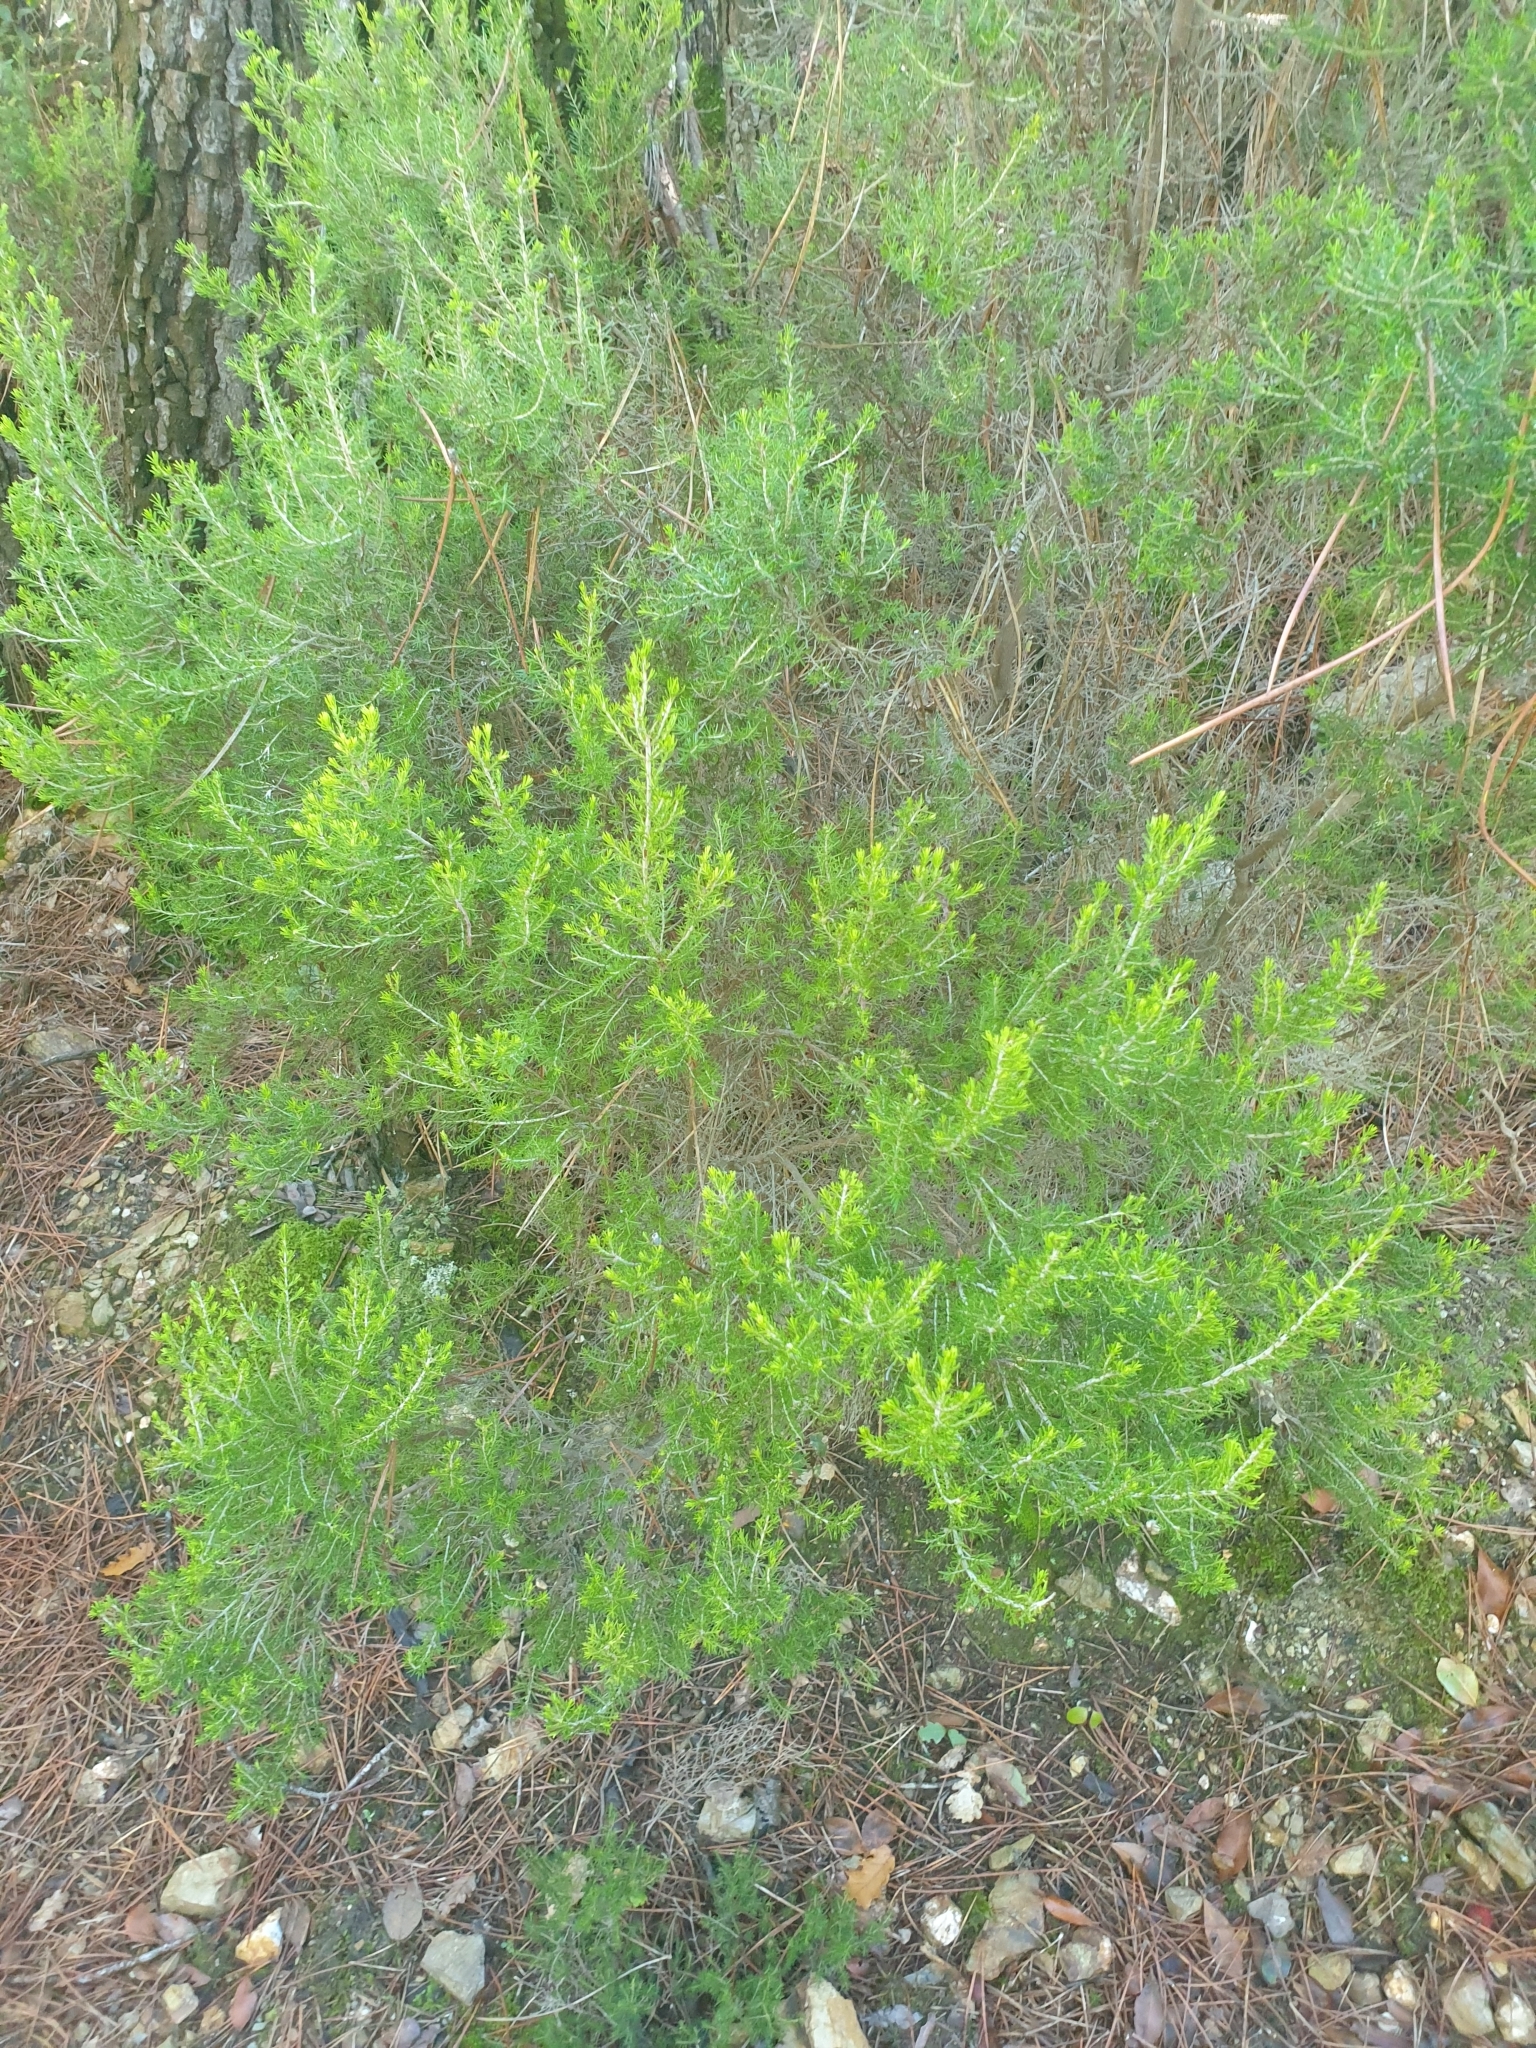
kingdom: Plantae
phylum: Tracheophyta
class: Magnoliopsida
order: Ericales
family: Ericaceae
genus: Erica
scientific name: Erica arborea
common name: Tree heath
